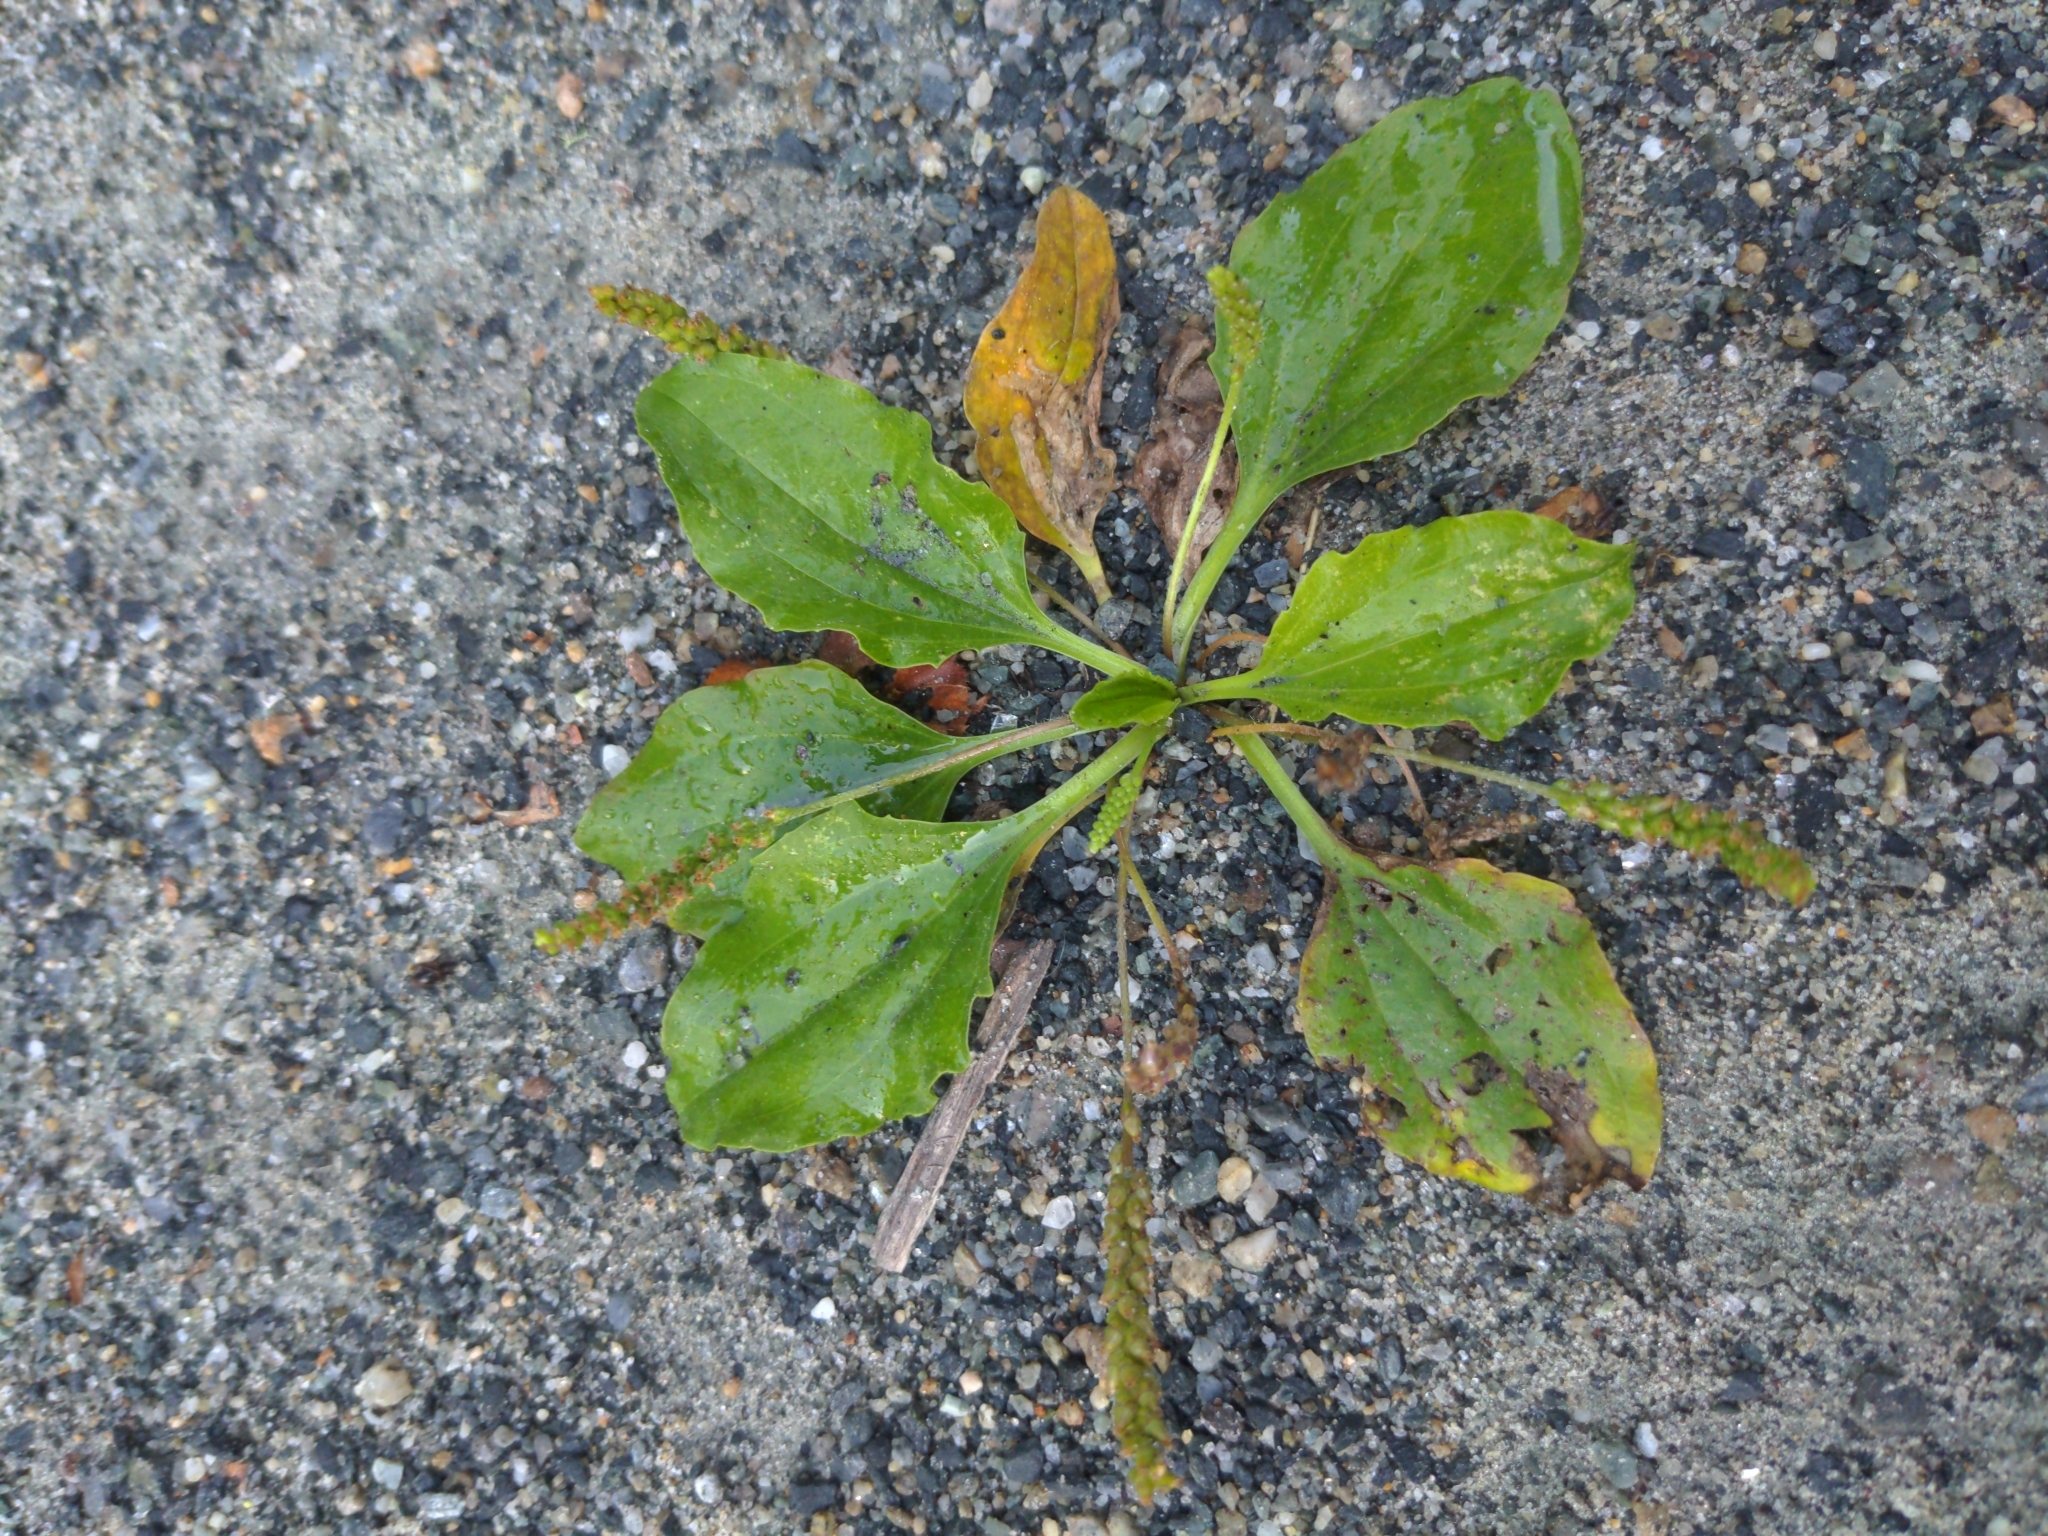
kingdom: Plantae
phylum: Tracheophyta
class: Magnoliopsida
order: Lamiales
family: Plantaginaceae
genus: Plantago
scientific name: Plantago rugelii
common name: American plantain
